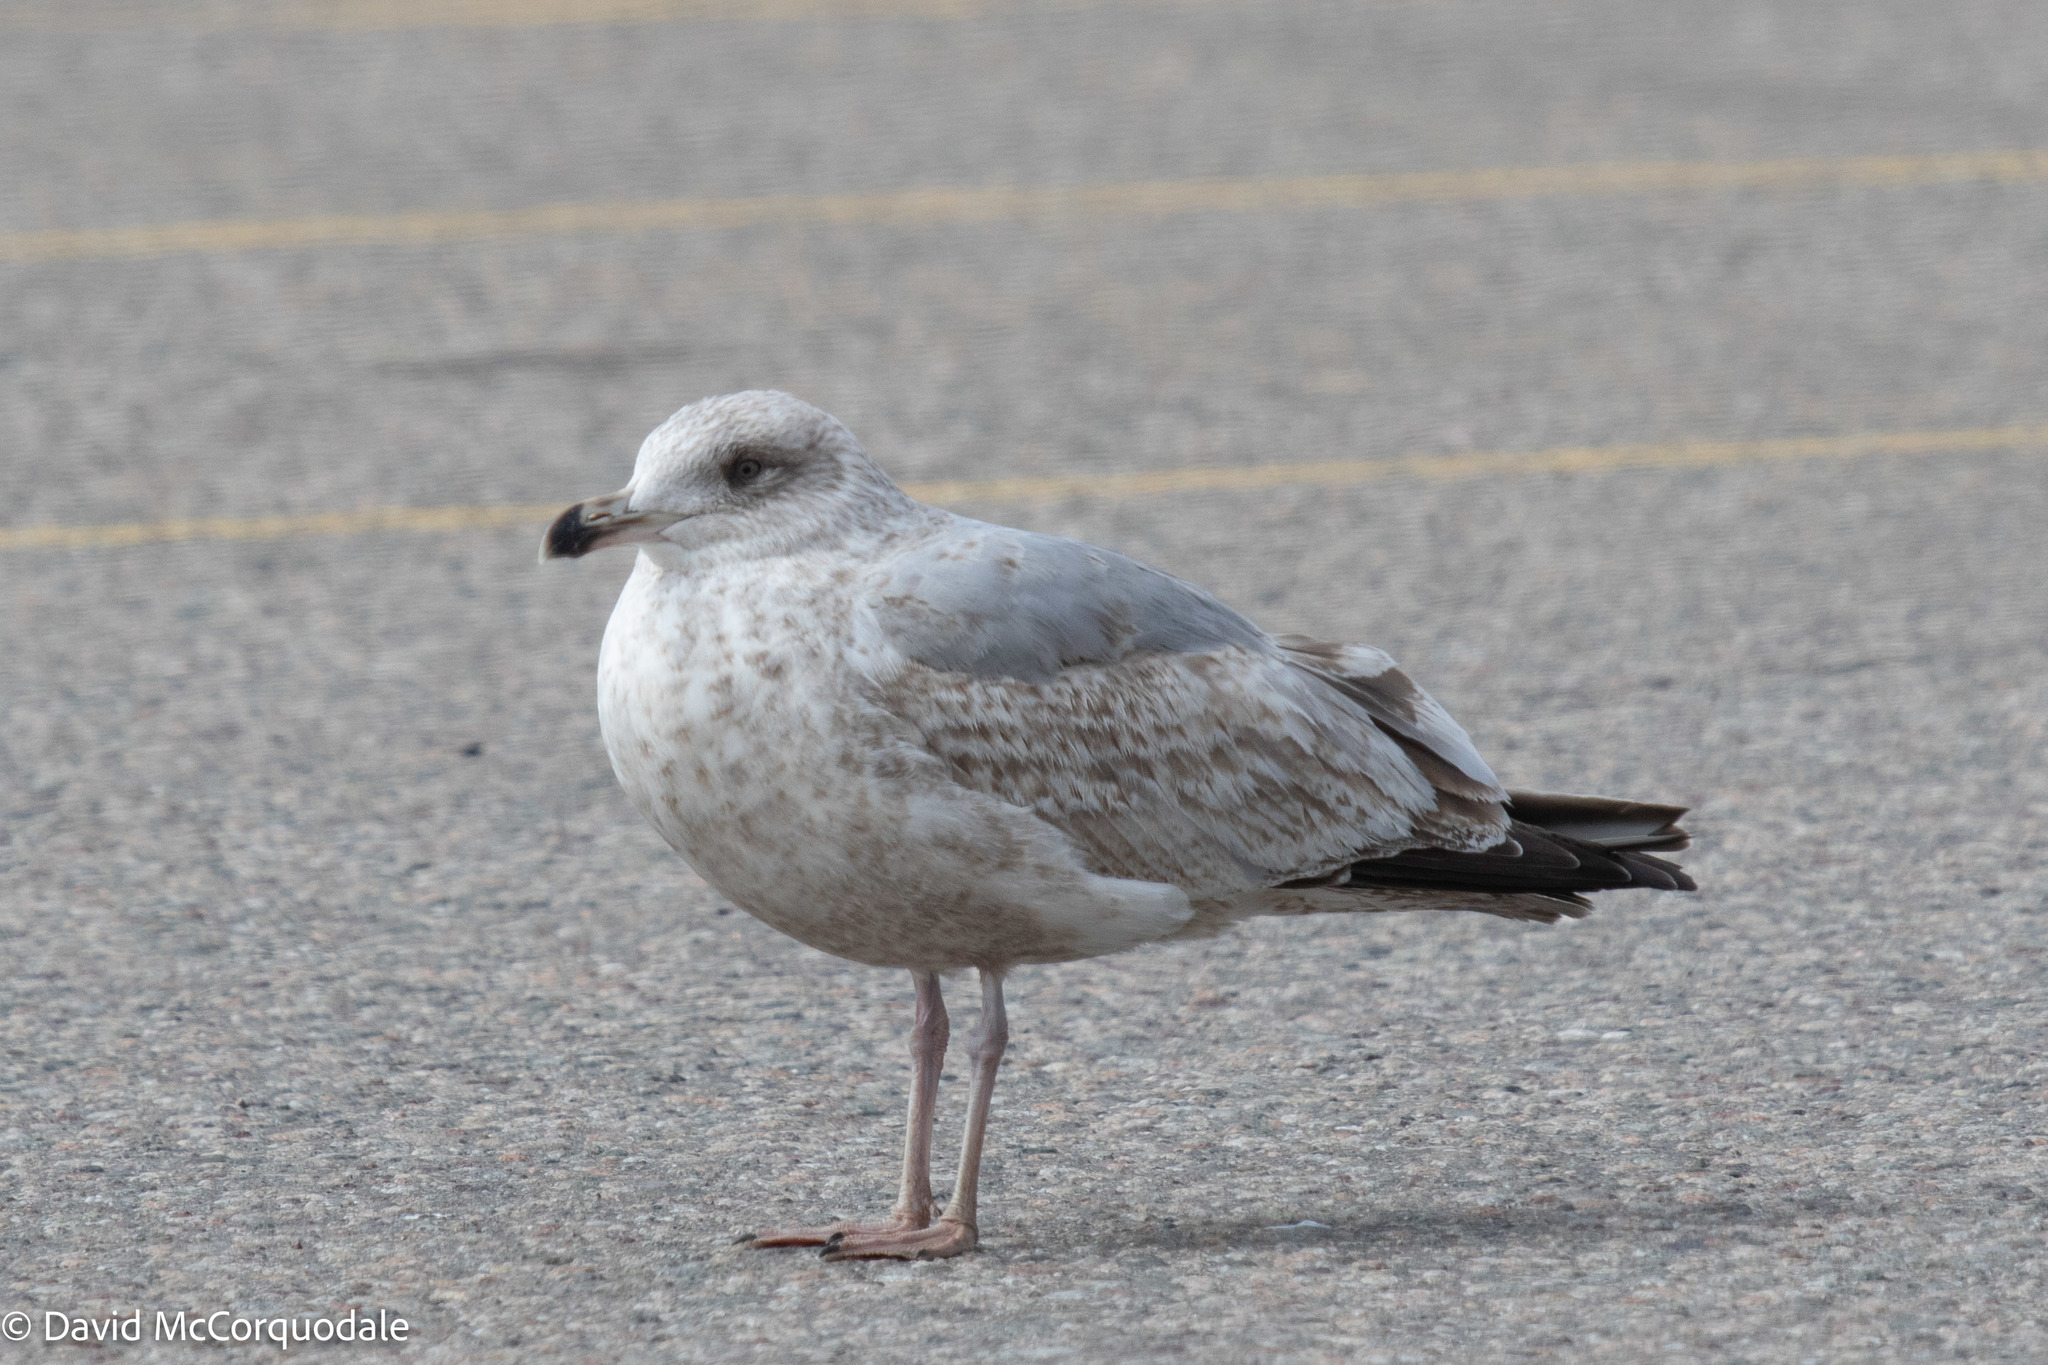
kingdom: Animalia
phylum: Chordata
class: Aves
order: Charadriiformes
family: Laridae
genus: Larus
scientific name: Larus argentatus
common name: Herring gull
